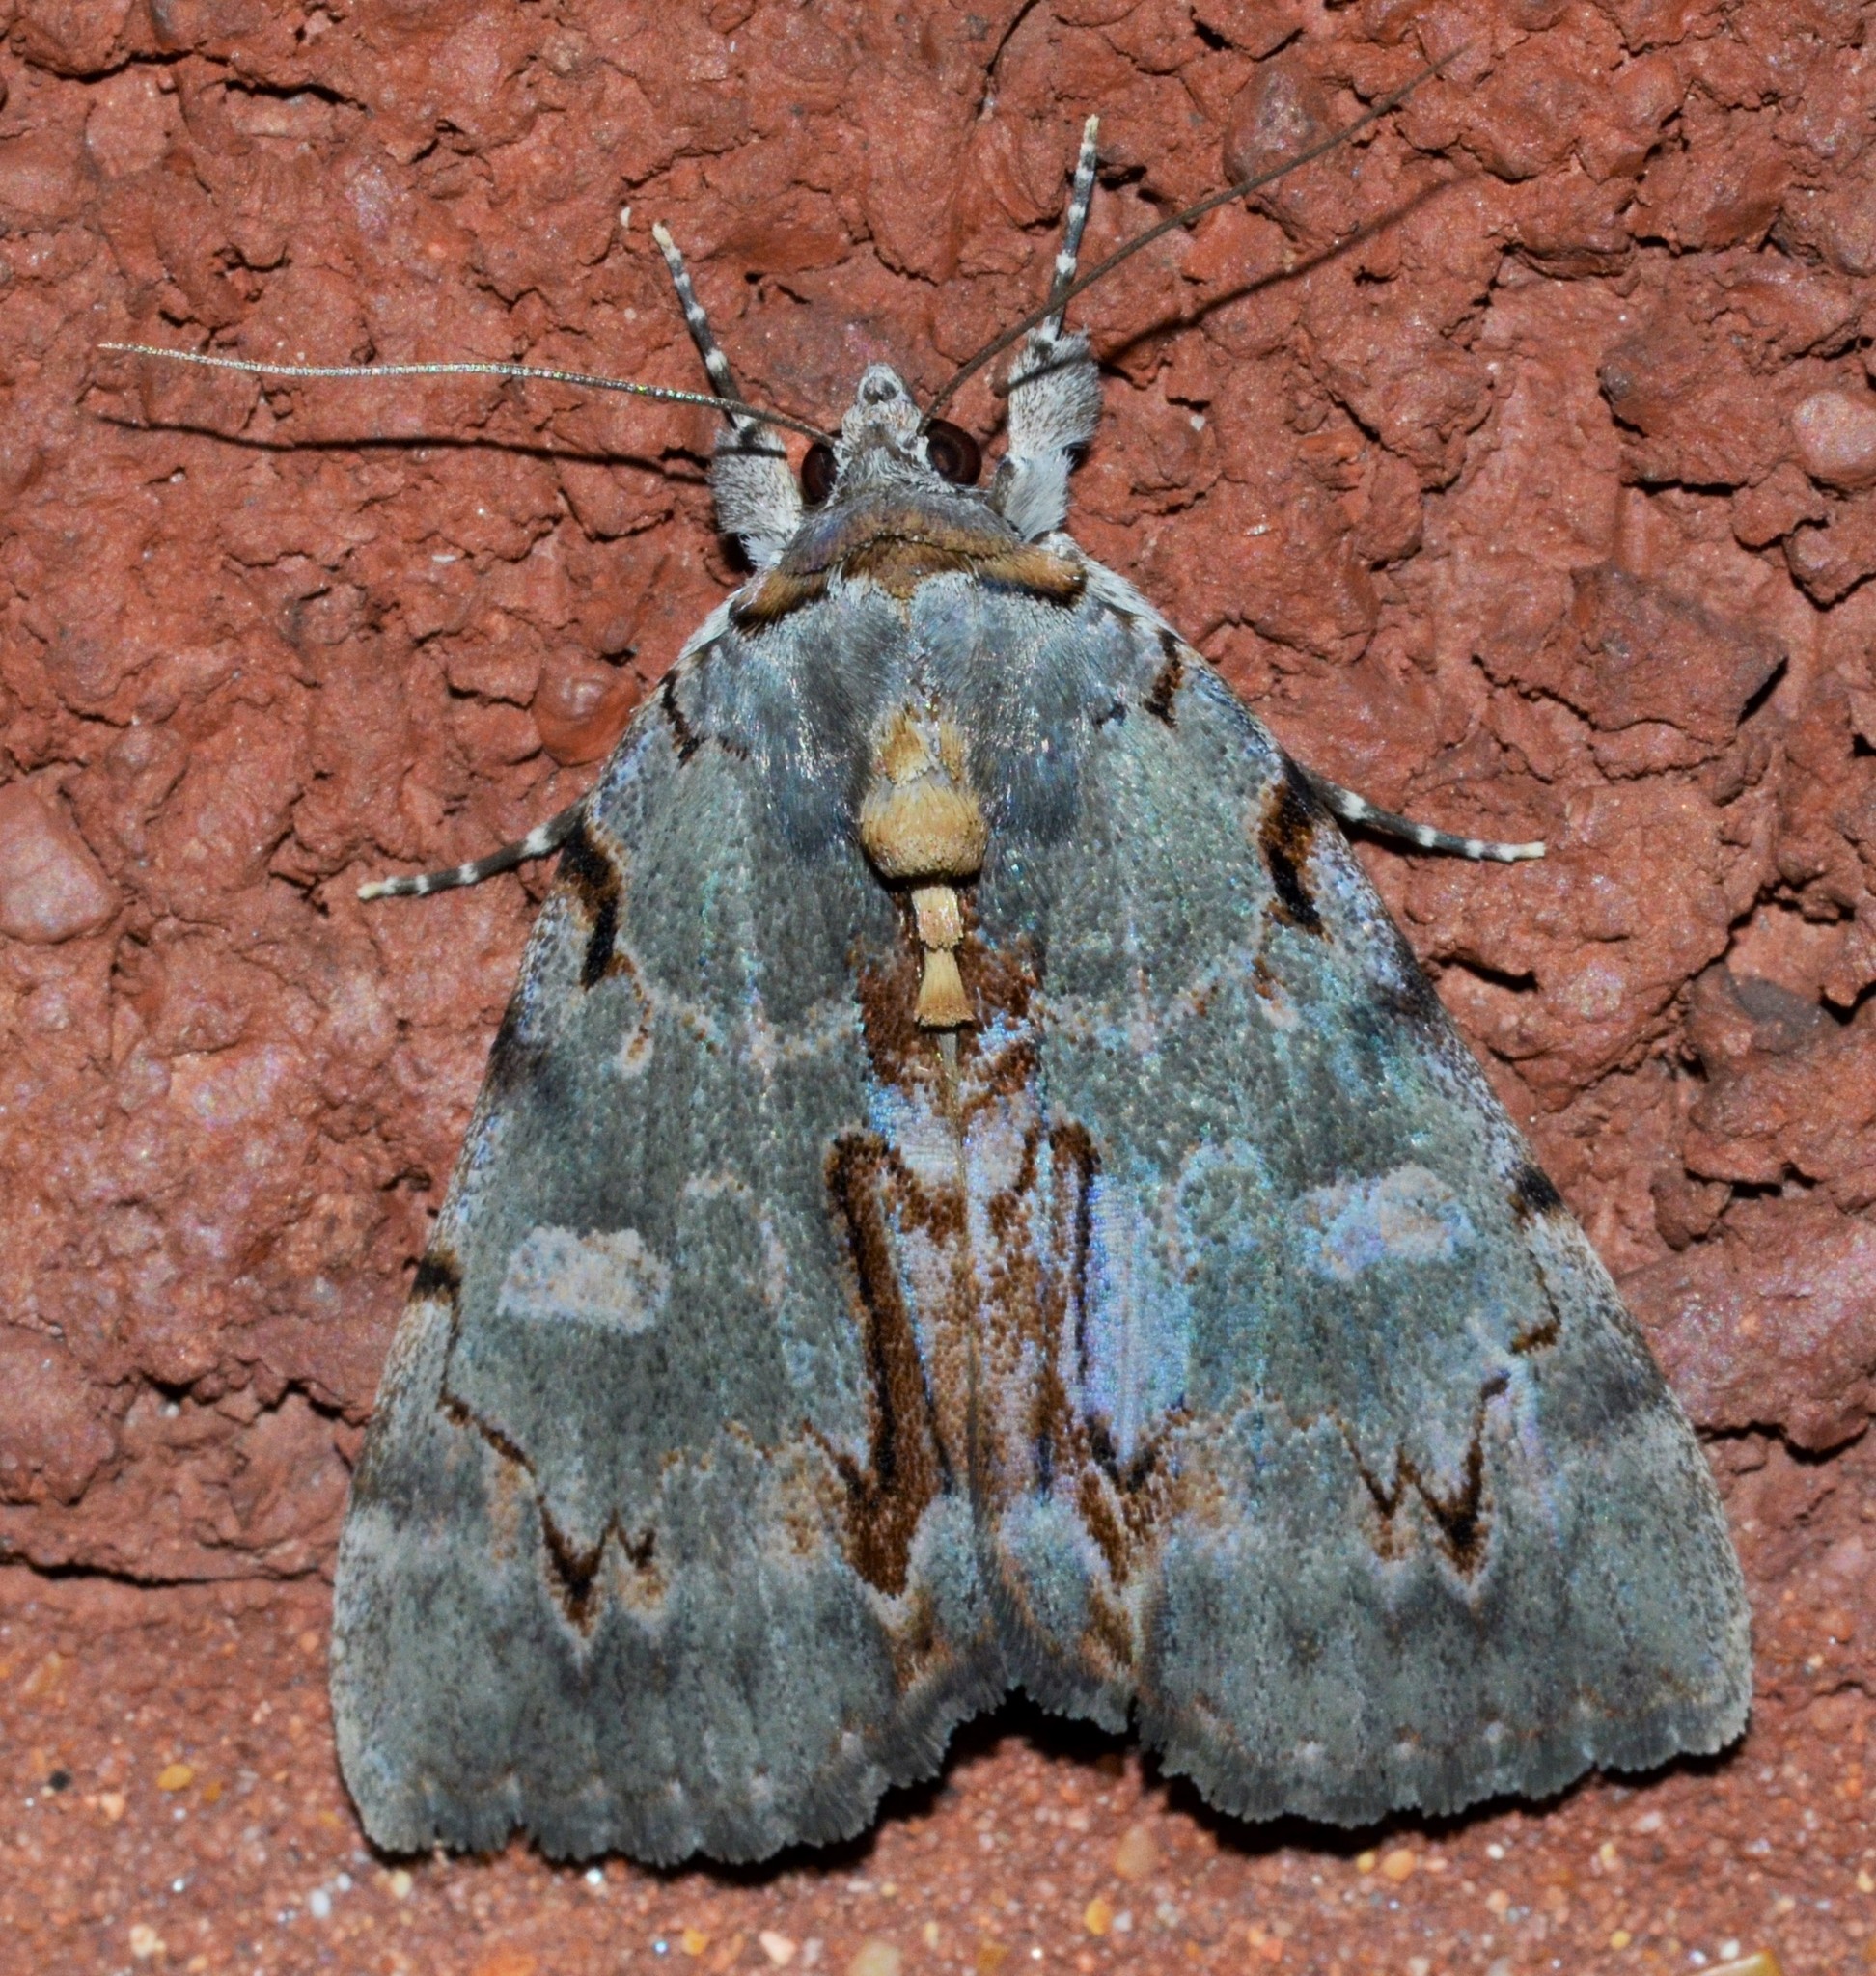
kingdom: Animalia
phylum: Arthropoda
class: Insecta
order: Lepidoptera
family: Erebidae
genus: Catocala
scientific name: Catocala grynea
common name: Woody underwing
